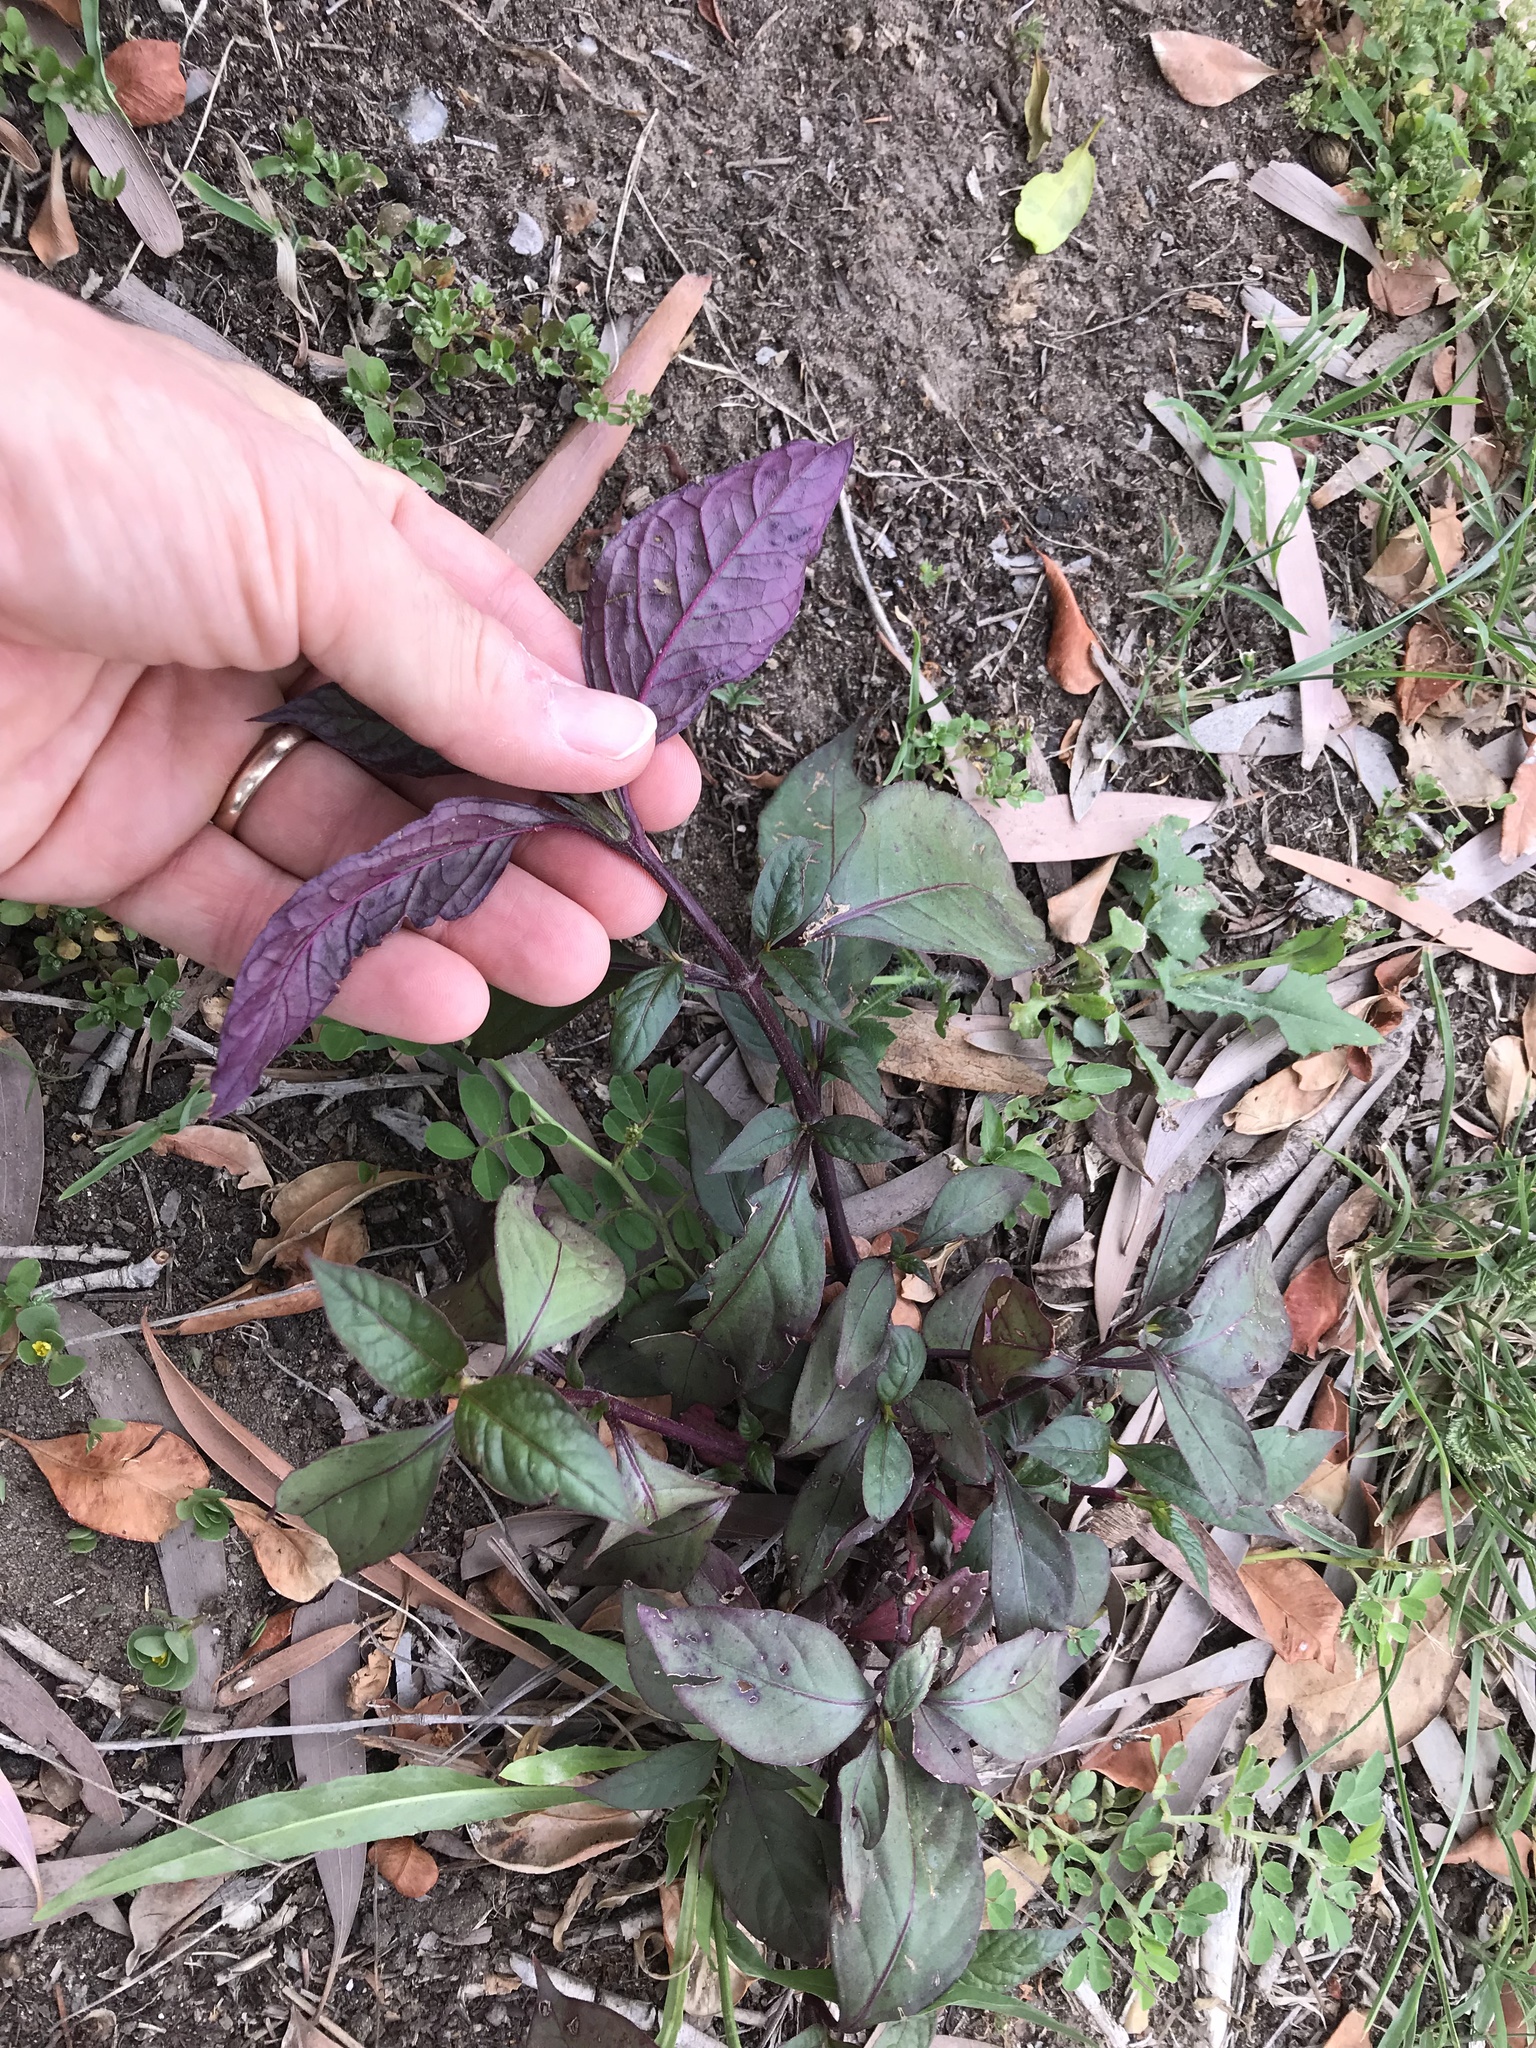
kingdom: Plantae
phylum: Tracheophyta
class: Magnoliopsida
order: Caryophyllales
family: Amaranthaceae
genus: Alternanthera
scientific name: Alternanthera brasiliana
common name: Brazilian joyweed
